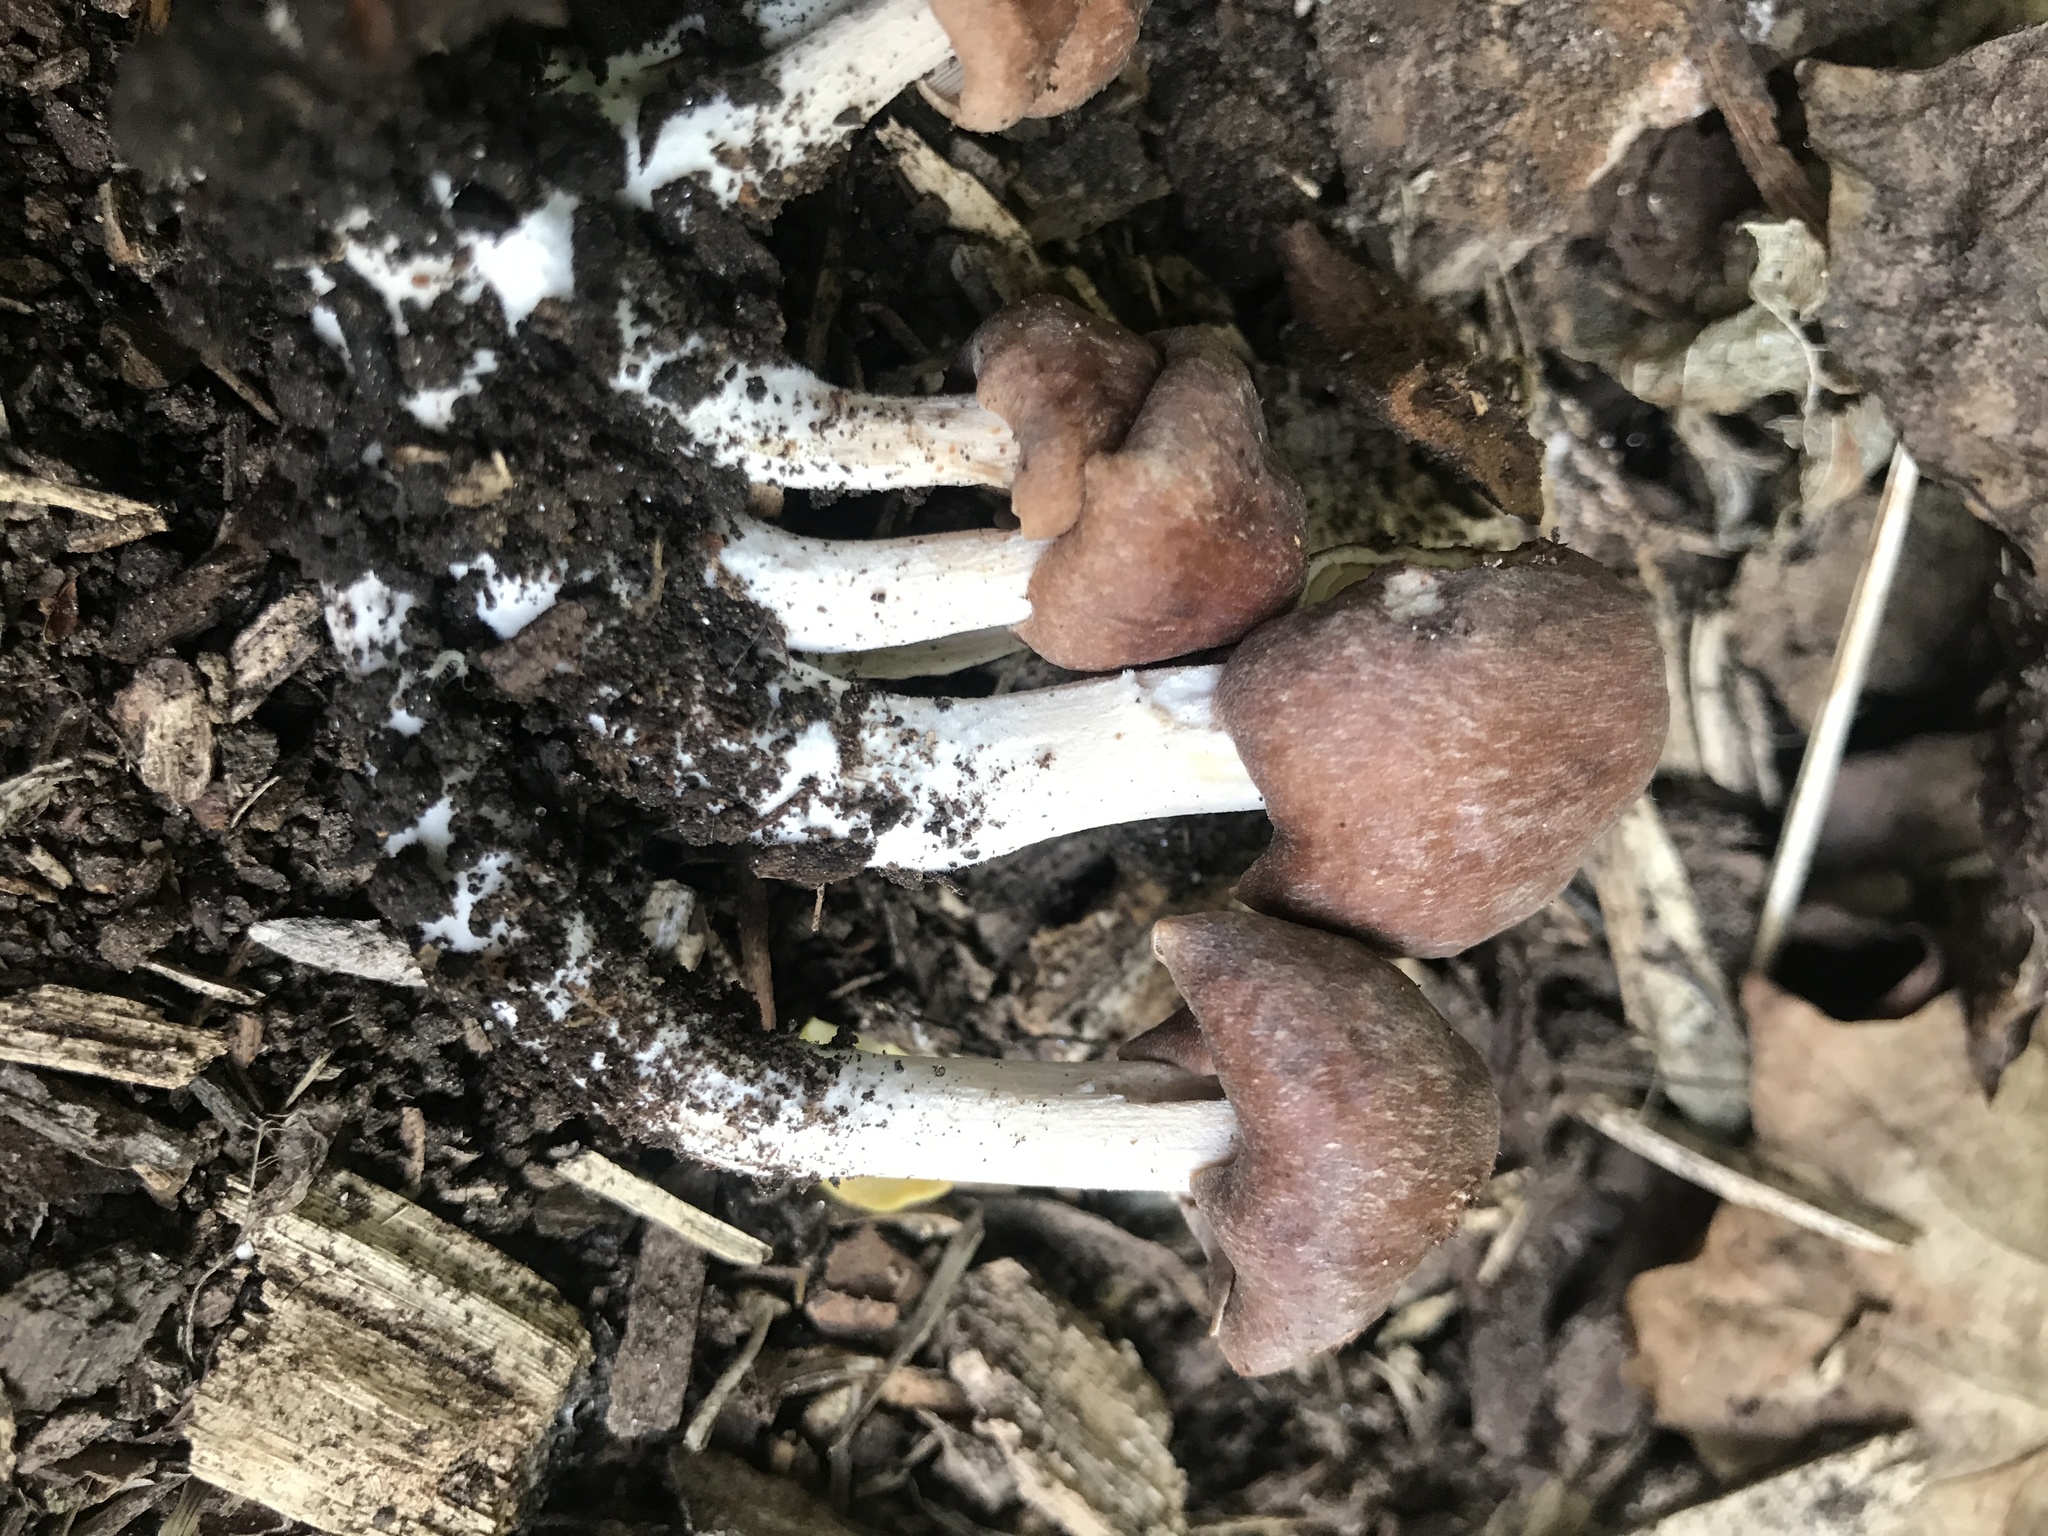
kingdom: Fungi
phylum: Basidiomycota
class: Agaricomycetes
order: Agaricales
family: Omphalotaceae
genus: Collybiopsis
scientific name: Collybiopsis luxurians
